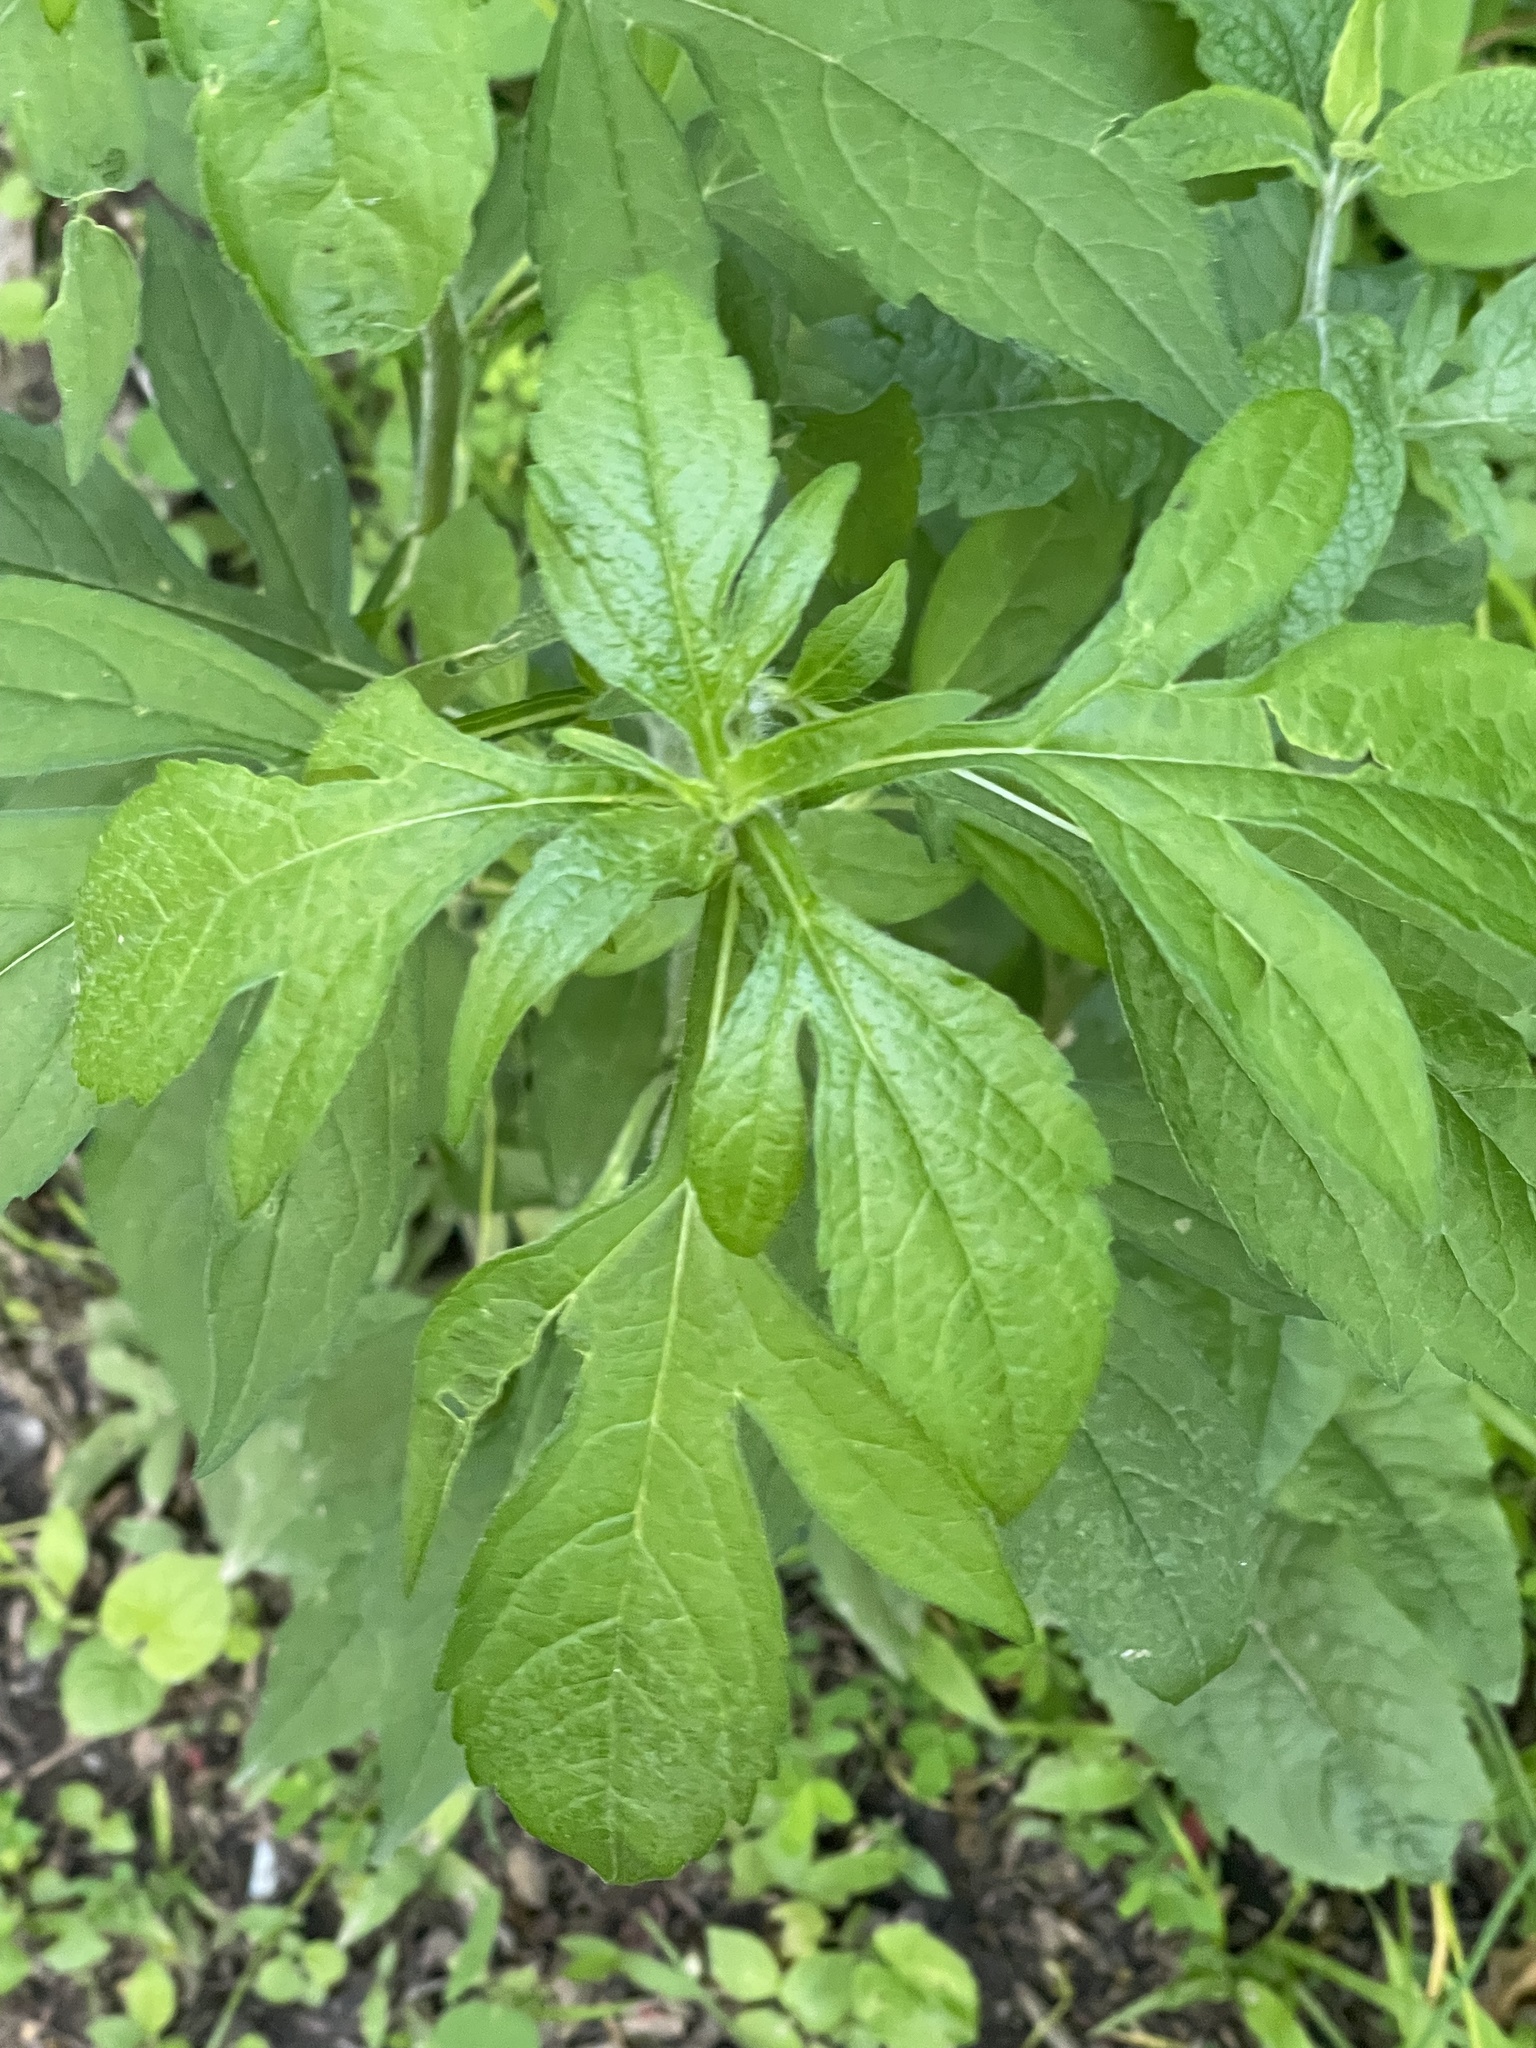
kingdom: Plantae
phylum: Tracheophyta
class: Magnoliopsida
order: Asterales
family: Asteraceae
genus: Ambrosia
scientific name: Ambrosia trifida
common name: Giant ragweed
